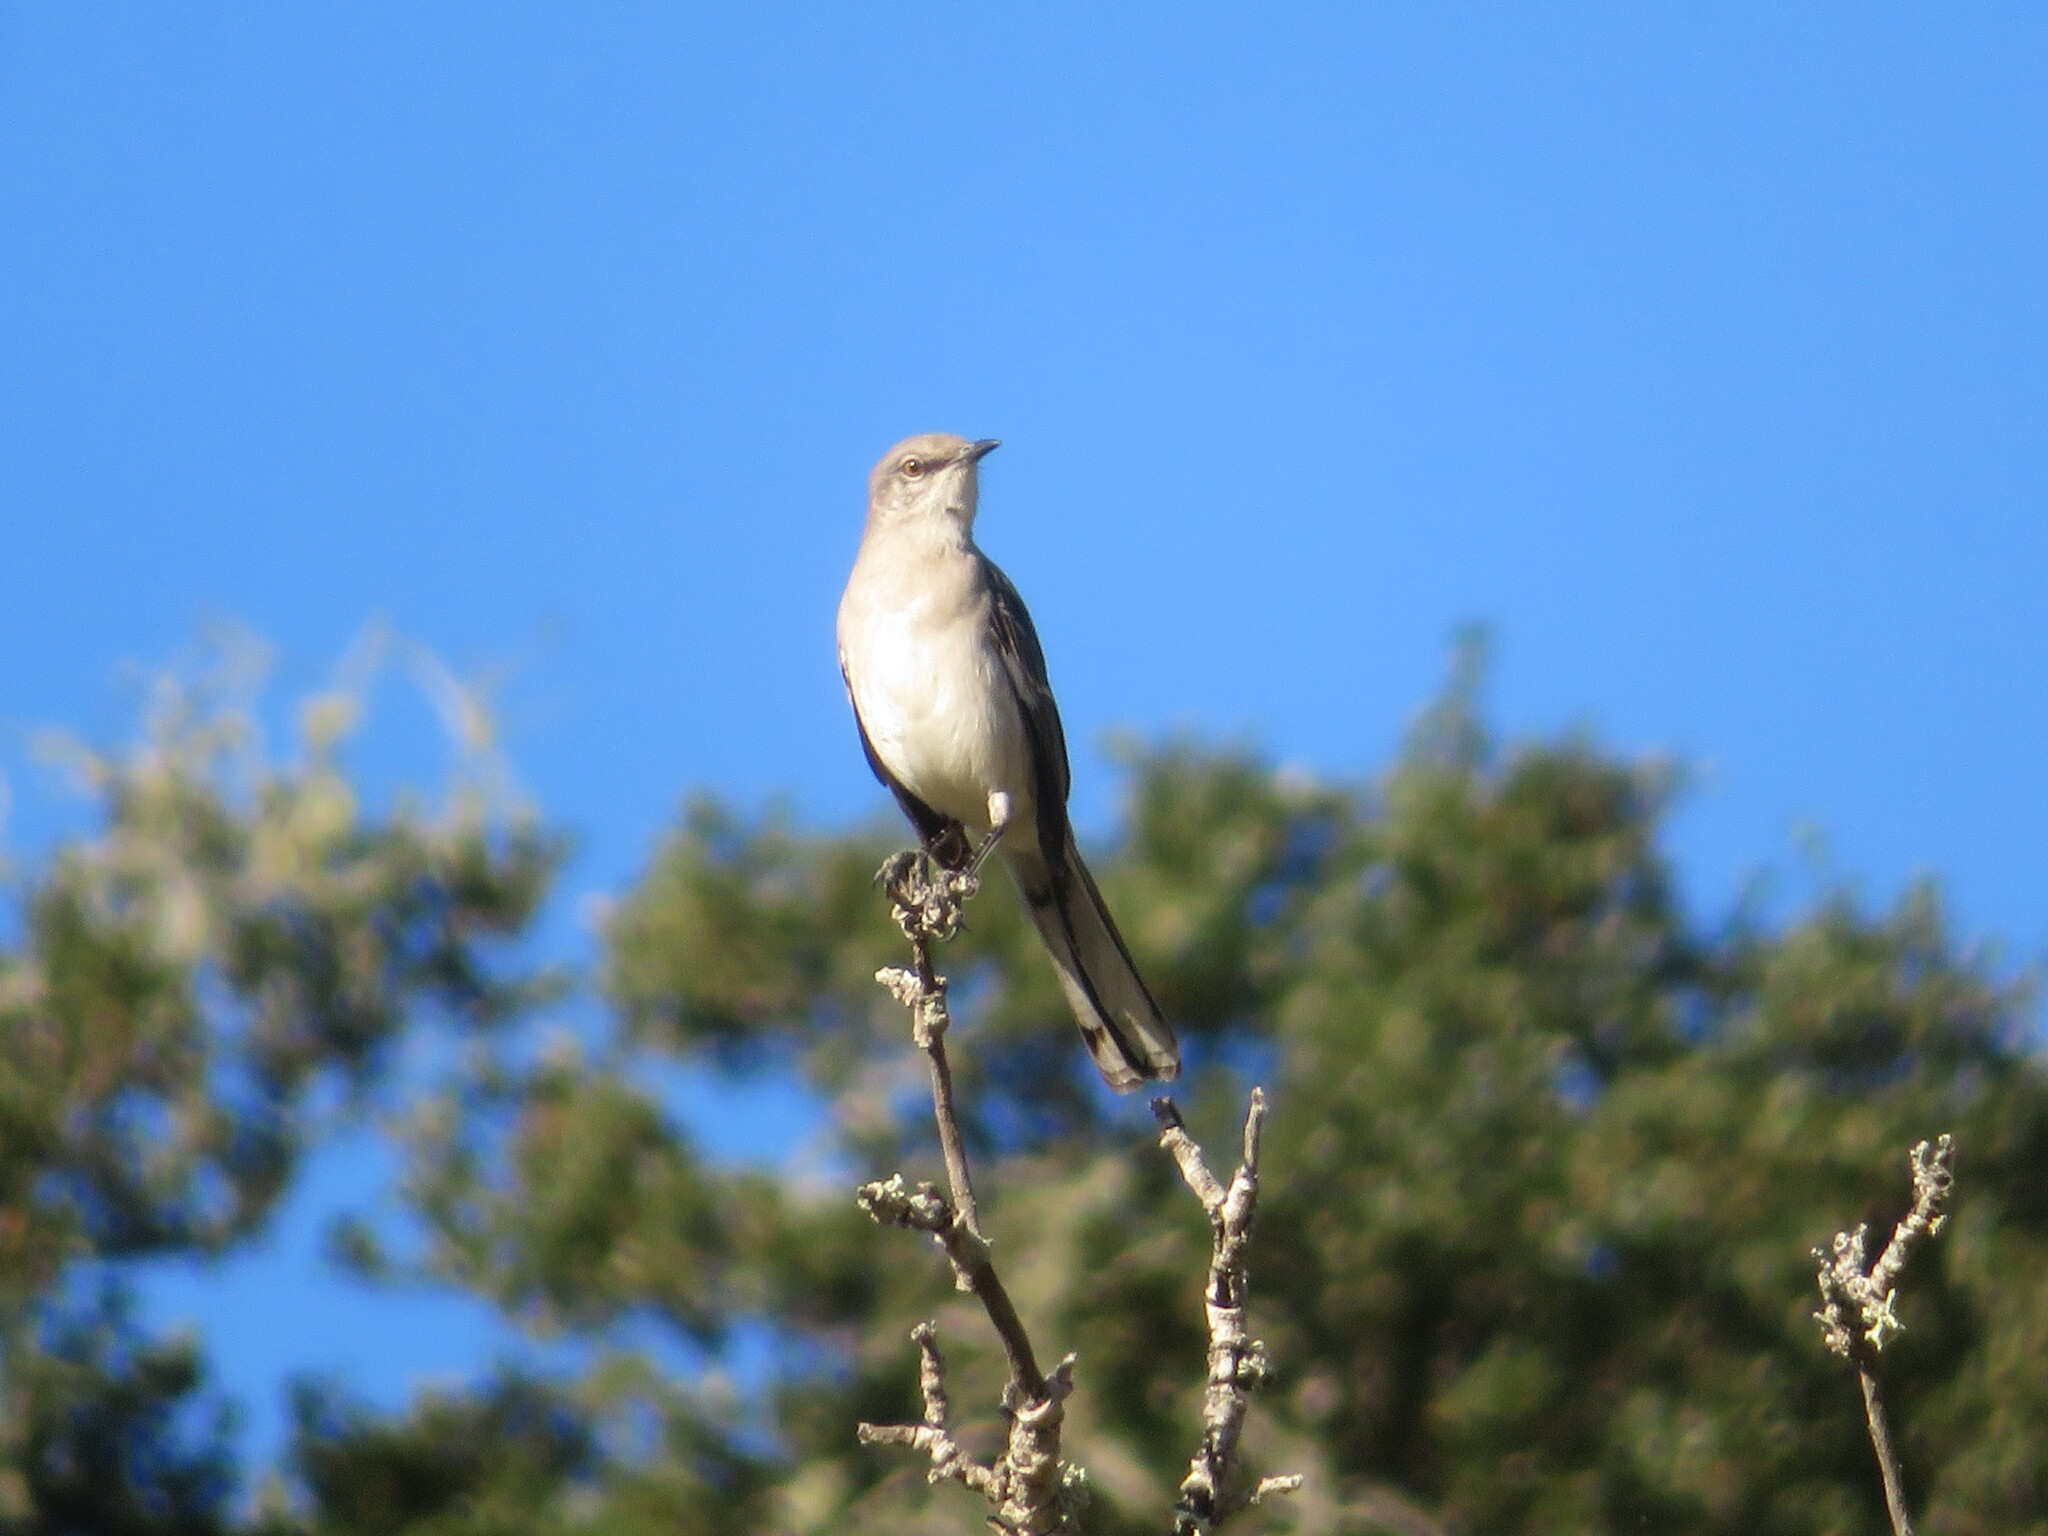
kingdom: Animalia
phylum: Chordata
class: Aves
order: Passeriformes
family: Mimidae
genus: Mimus
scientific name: Mimus polyglottos
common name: Northern mockingbird
